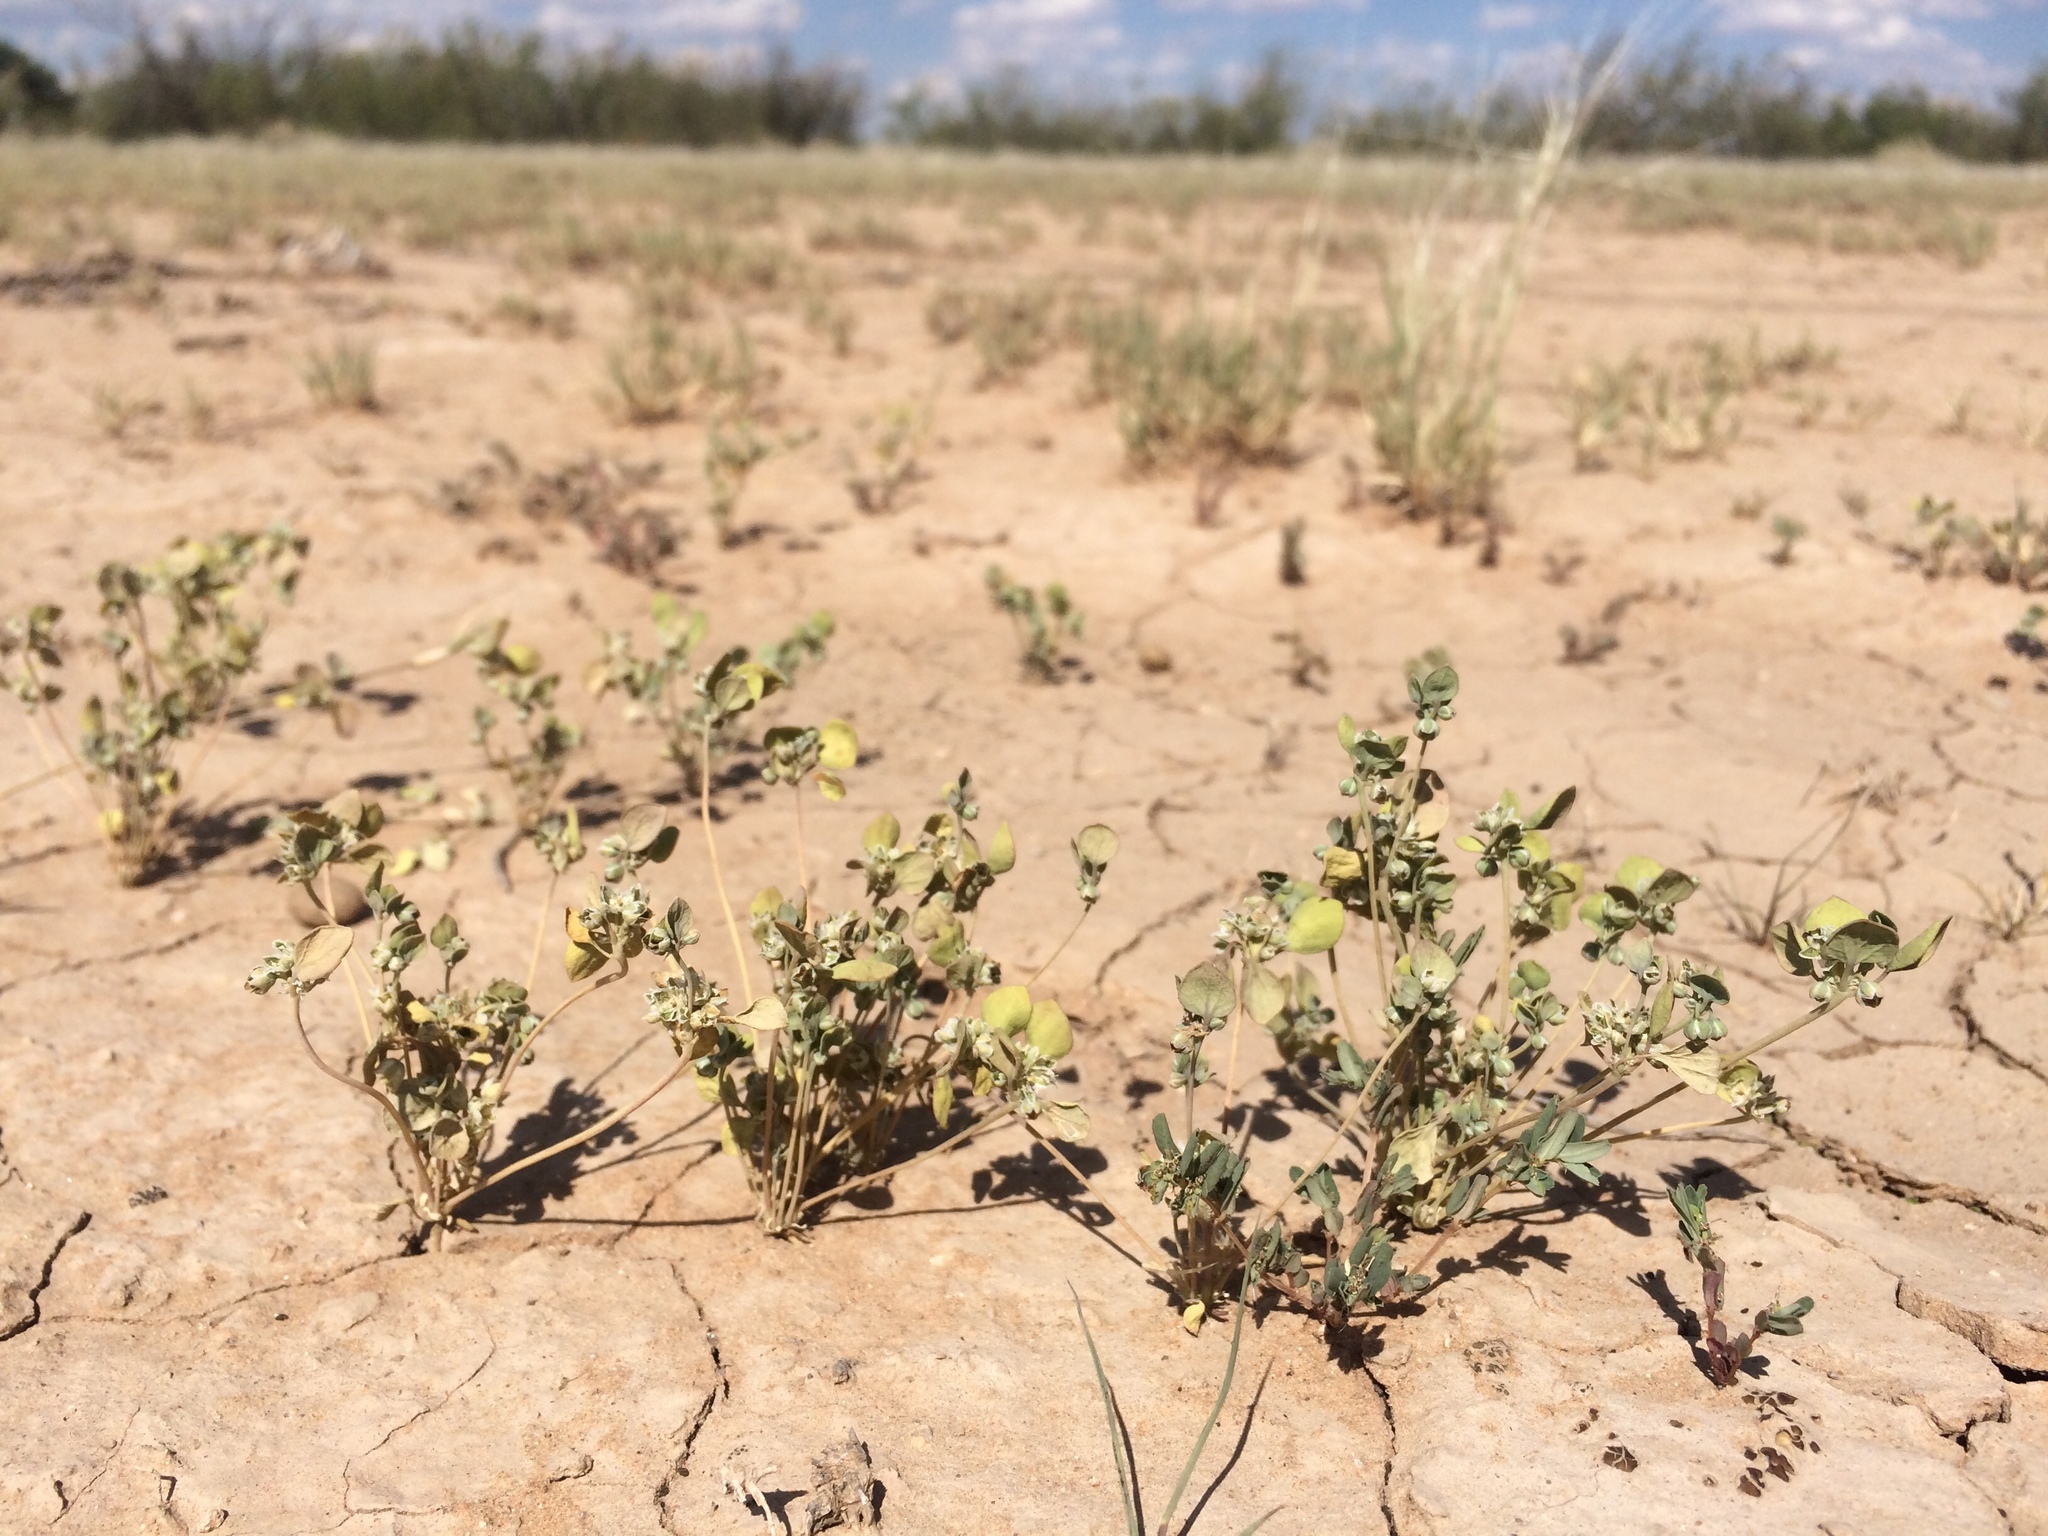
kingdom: Plantae
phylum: Tracheophyta
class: Magnoliopsida
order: Caryophyllales
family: Caryophyllaceae
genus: Drymaria
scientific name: Drymaria pachyphylla
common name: Inkweed
